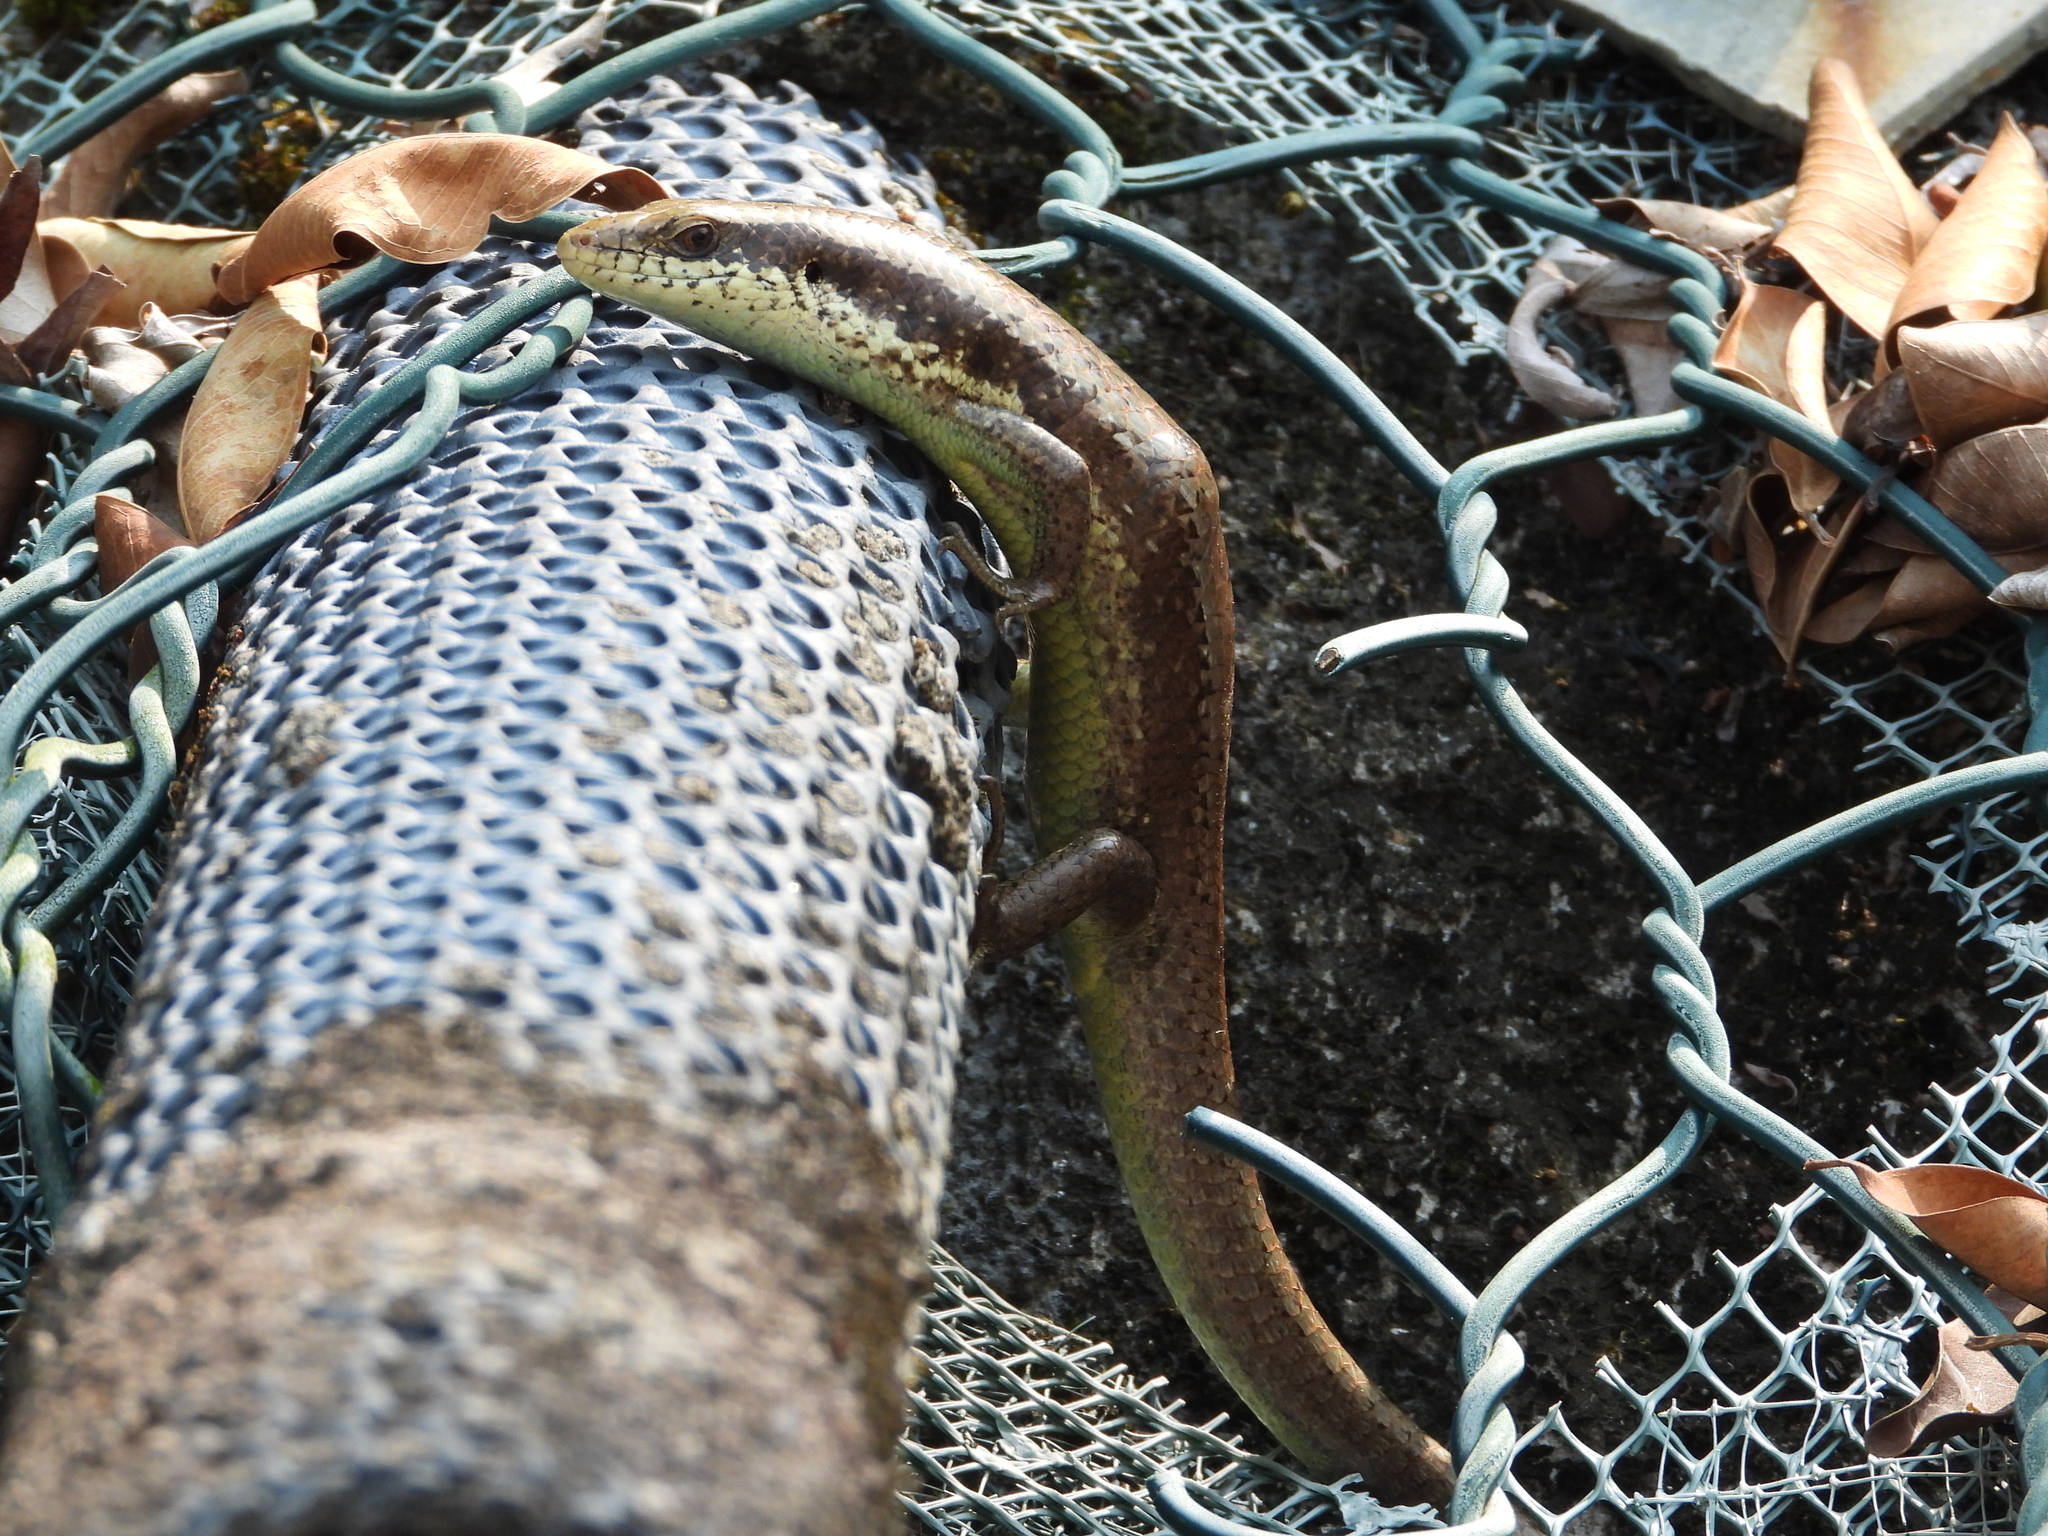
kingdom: Animalia
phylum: Chordata
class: Squamata
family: Scincidae
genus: Eutropis
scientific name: Eutropis longicaudata
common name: Long-tailed sun skink
